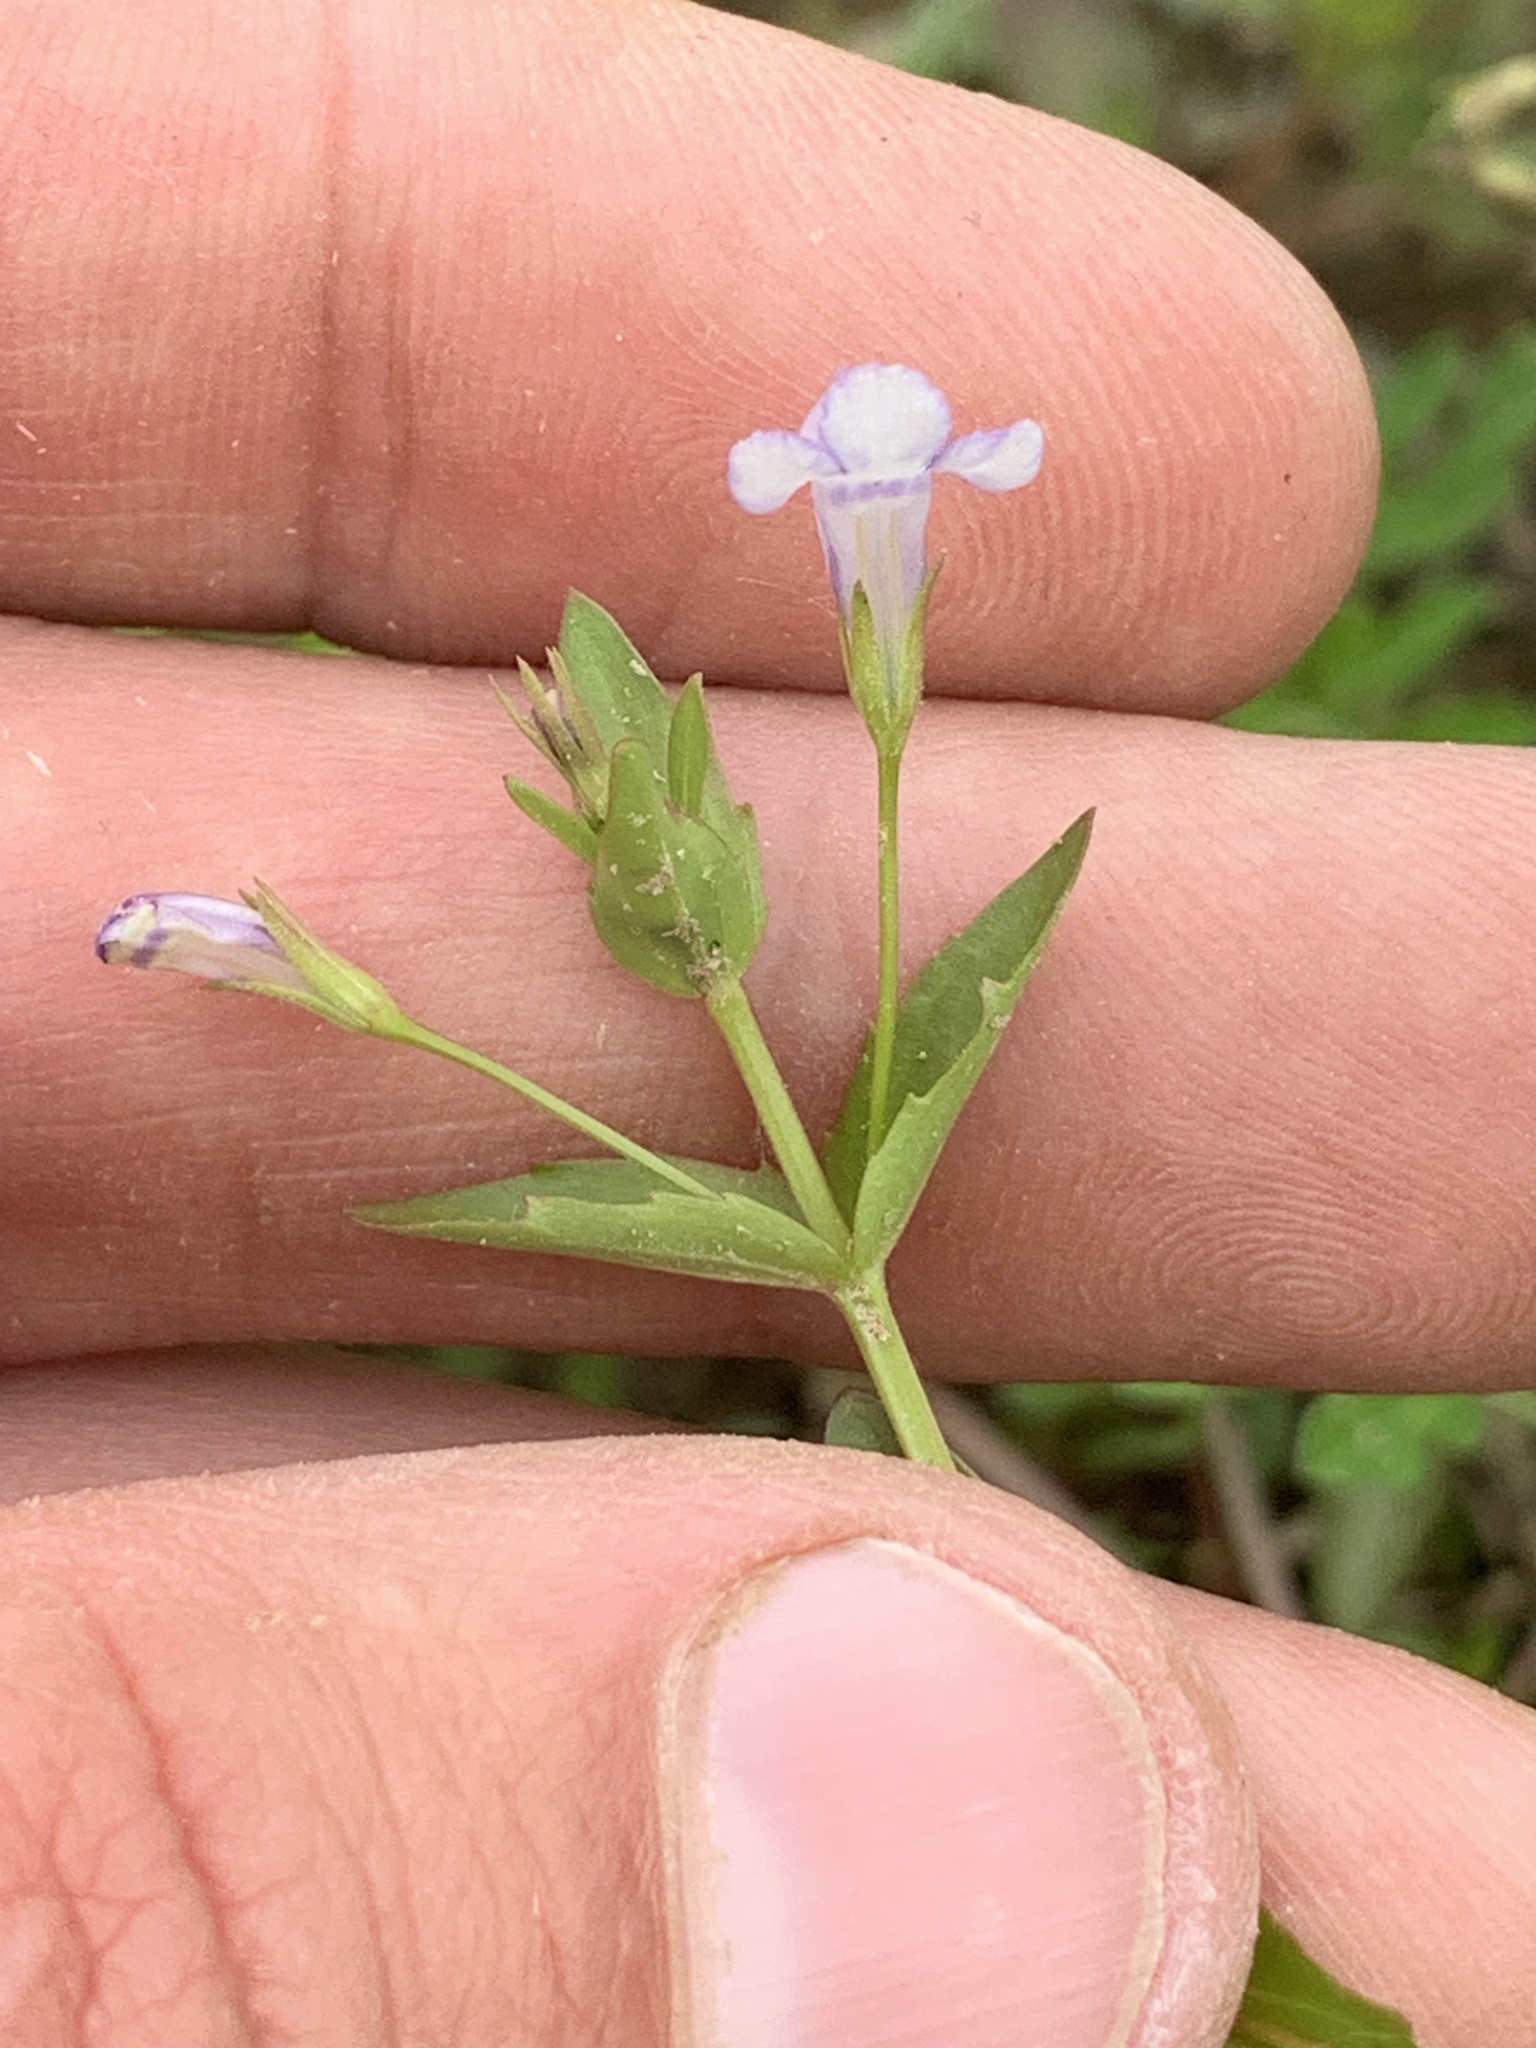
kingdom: Plantae
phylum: Tracheophyta
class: Magnoliopsida
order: Lamiales
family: Linderniaceae
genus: Lindernia
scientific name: Lindernia dubia
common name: Annual false pimpernel
